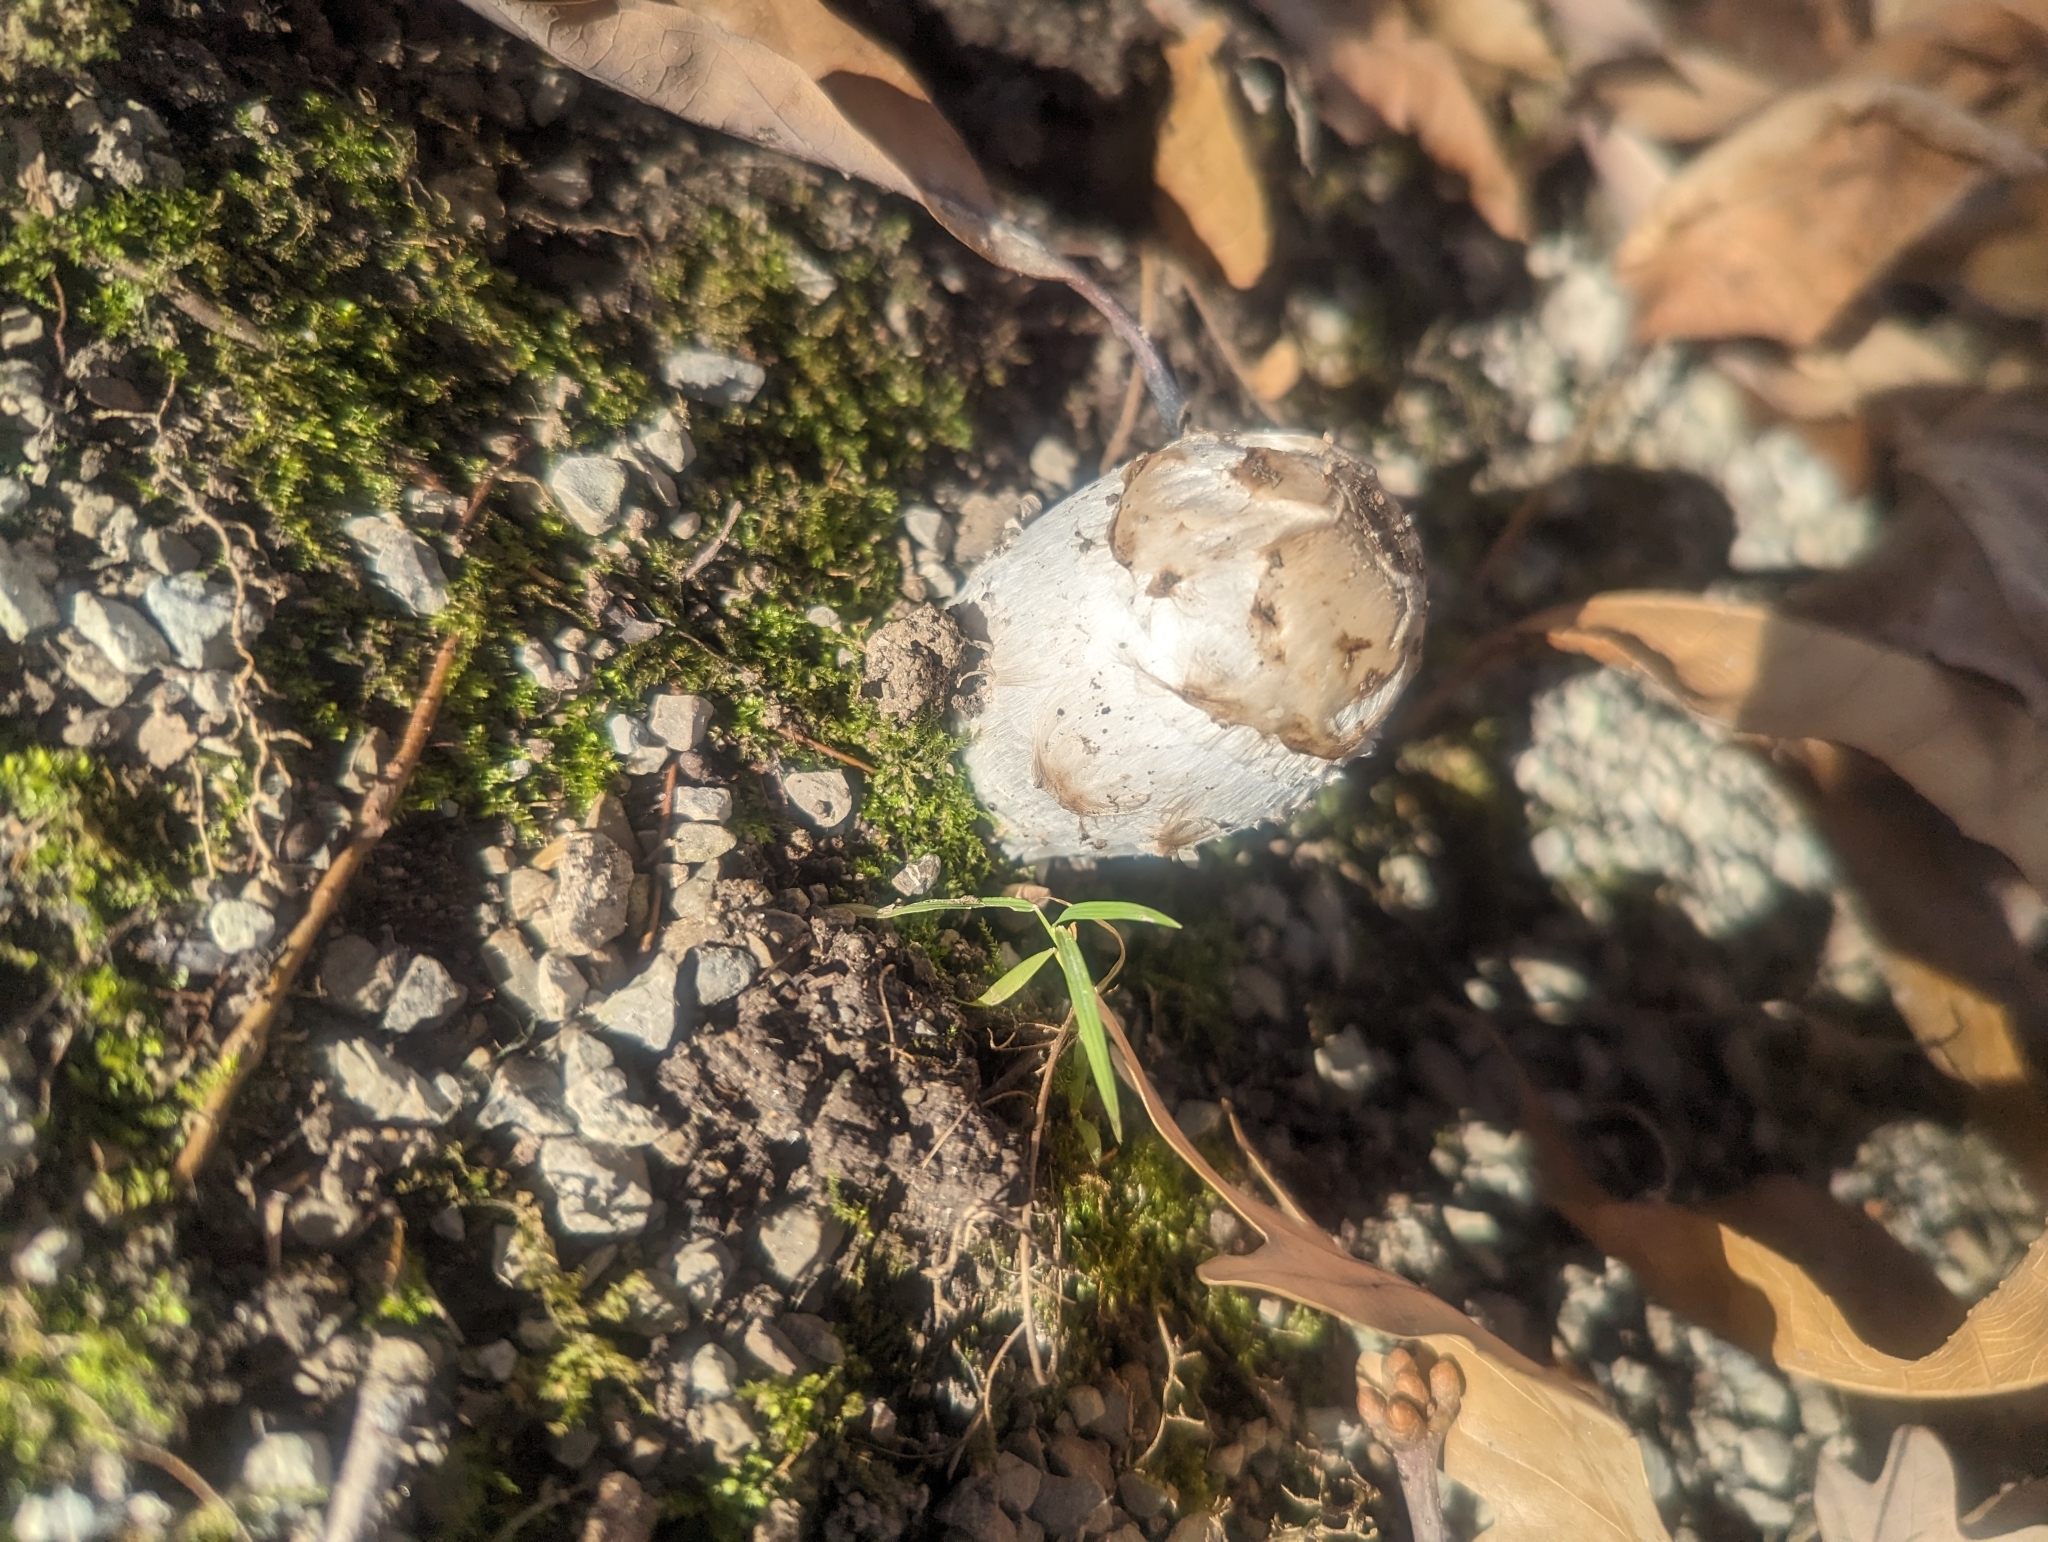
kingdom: Fungi
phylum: Basidiomycota
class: Agaricomycetes
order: Agaricales
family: Agaricaceae
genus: Coprinus
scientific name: Coprinus comatus
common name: Lawyer's wig
